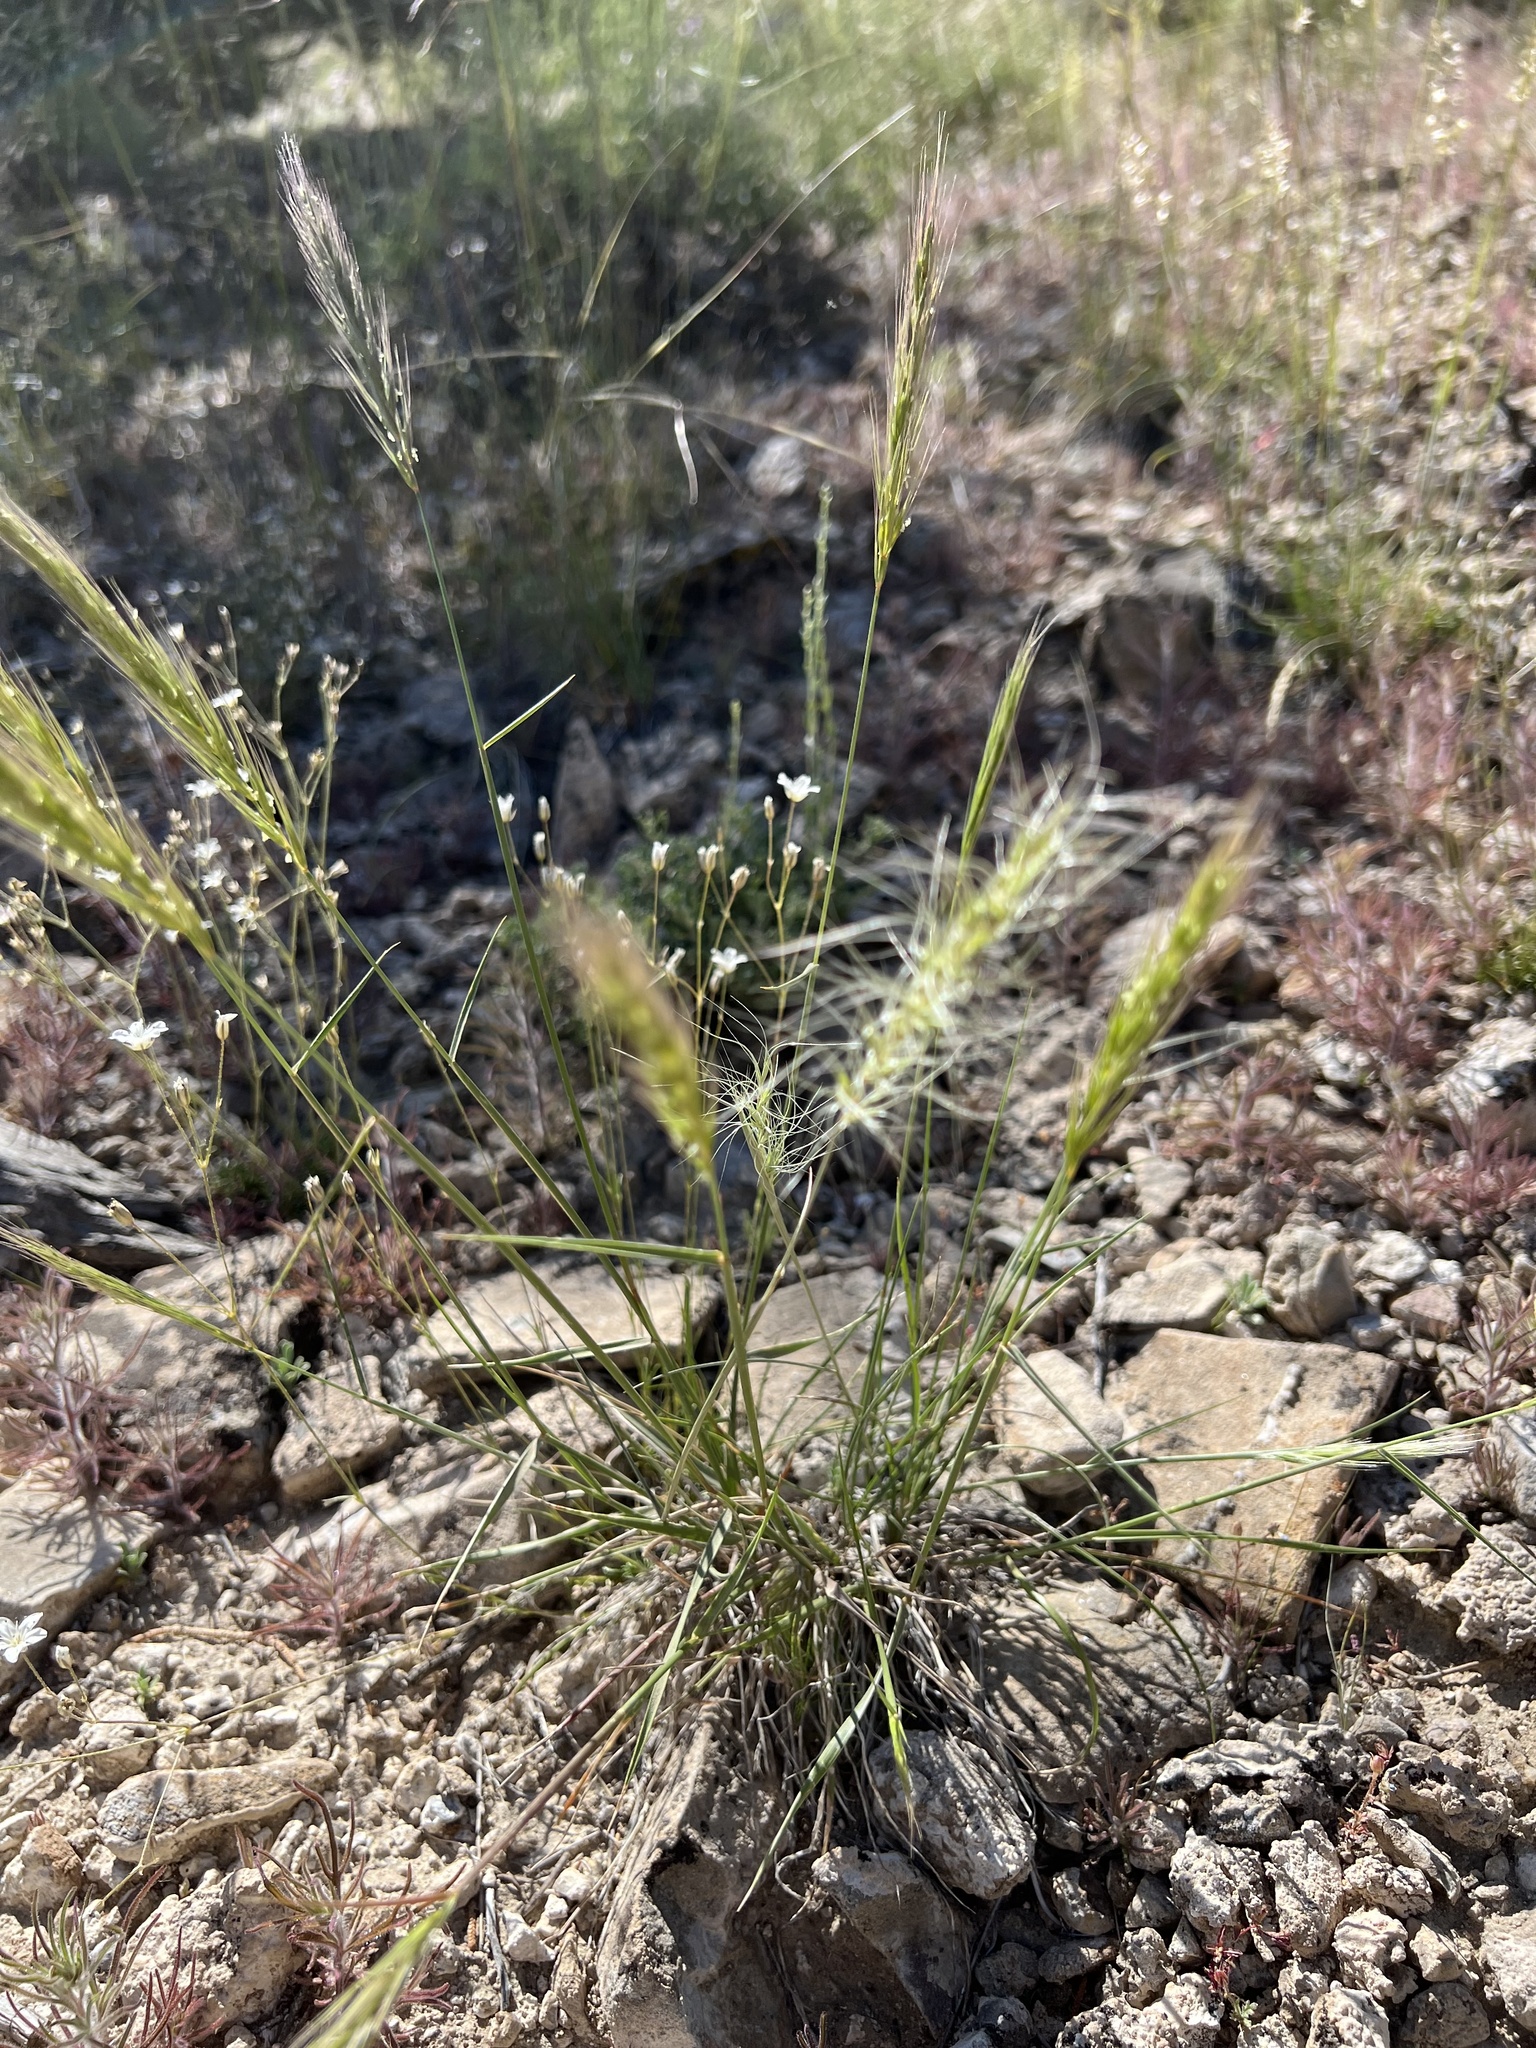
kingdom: Plantae
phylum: Tracheophyta
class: Liliopsida
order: Poales
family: Poaceae
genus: Elymus
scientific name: Elymus elymoides
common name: Bottlebrush squirreltail
